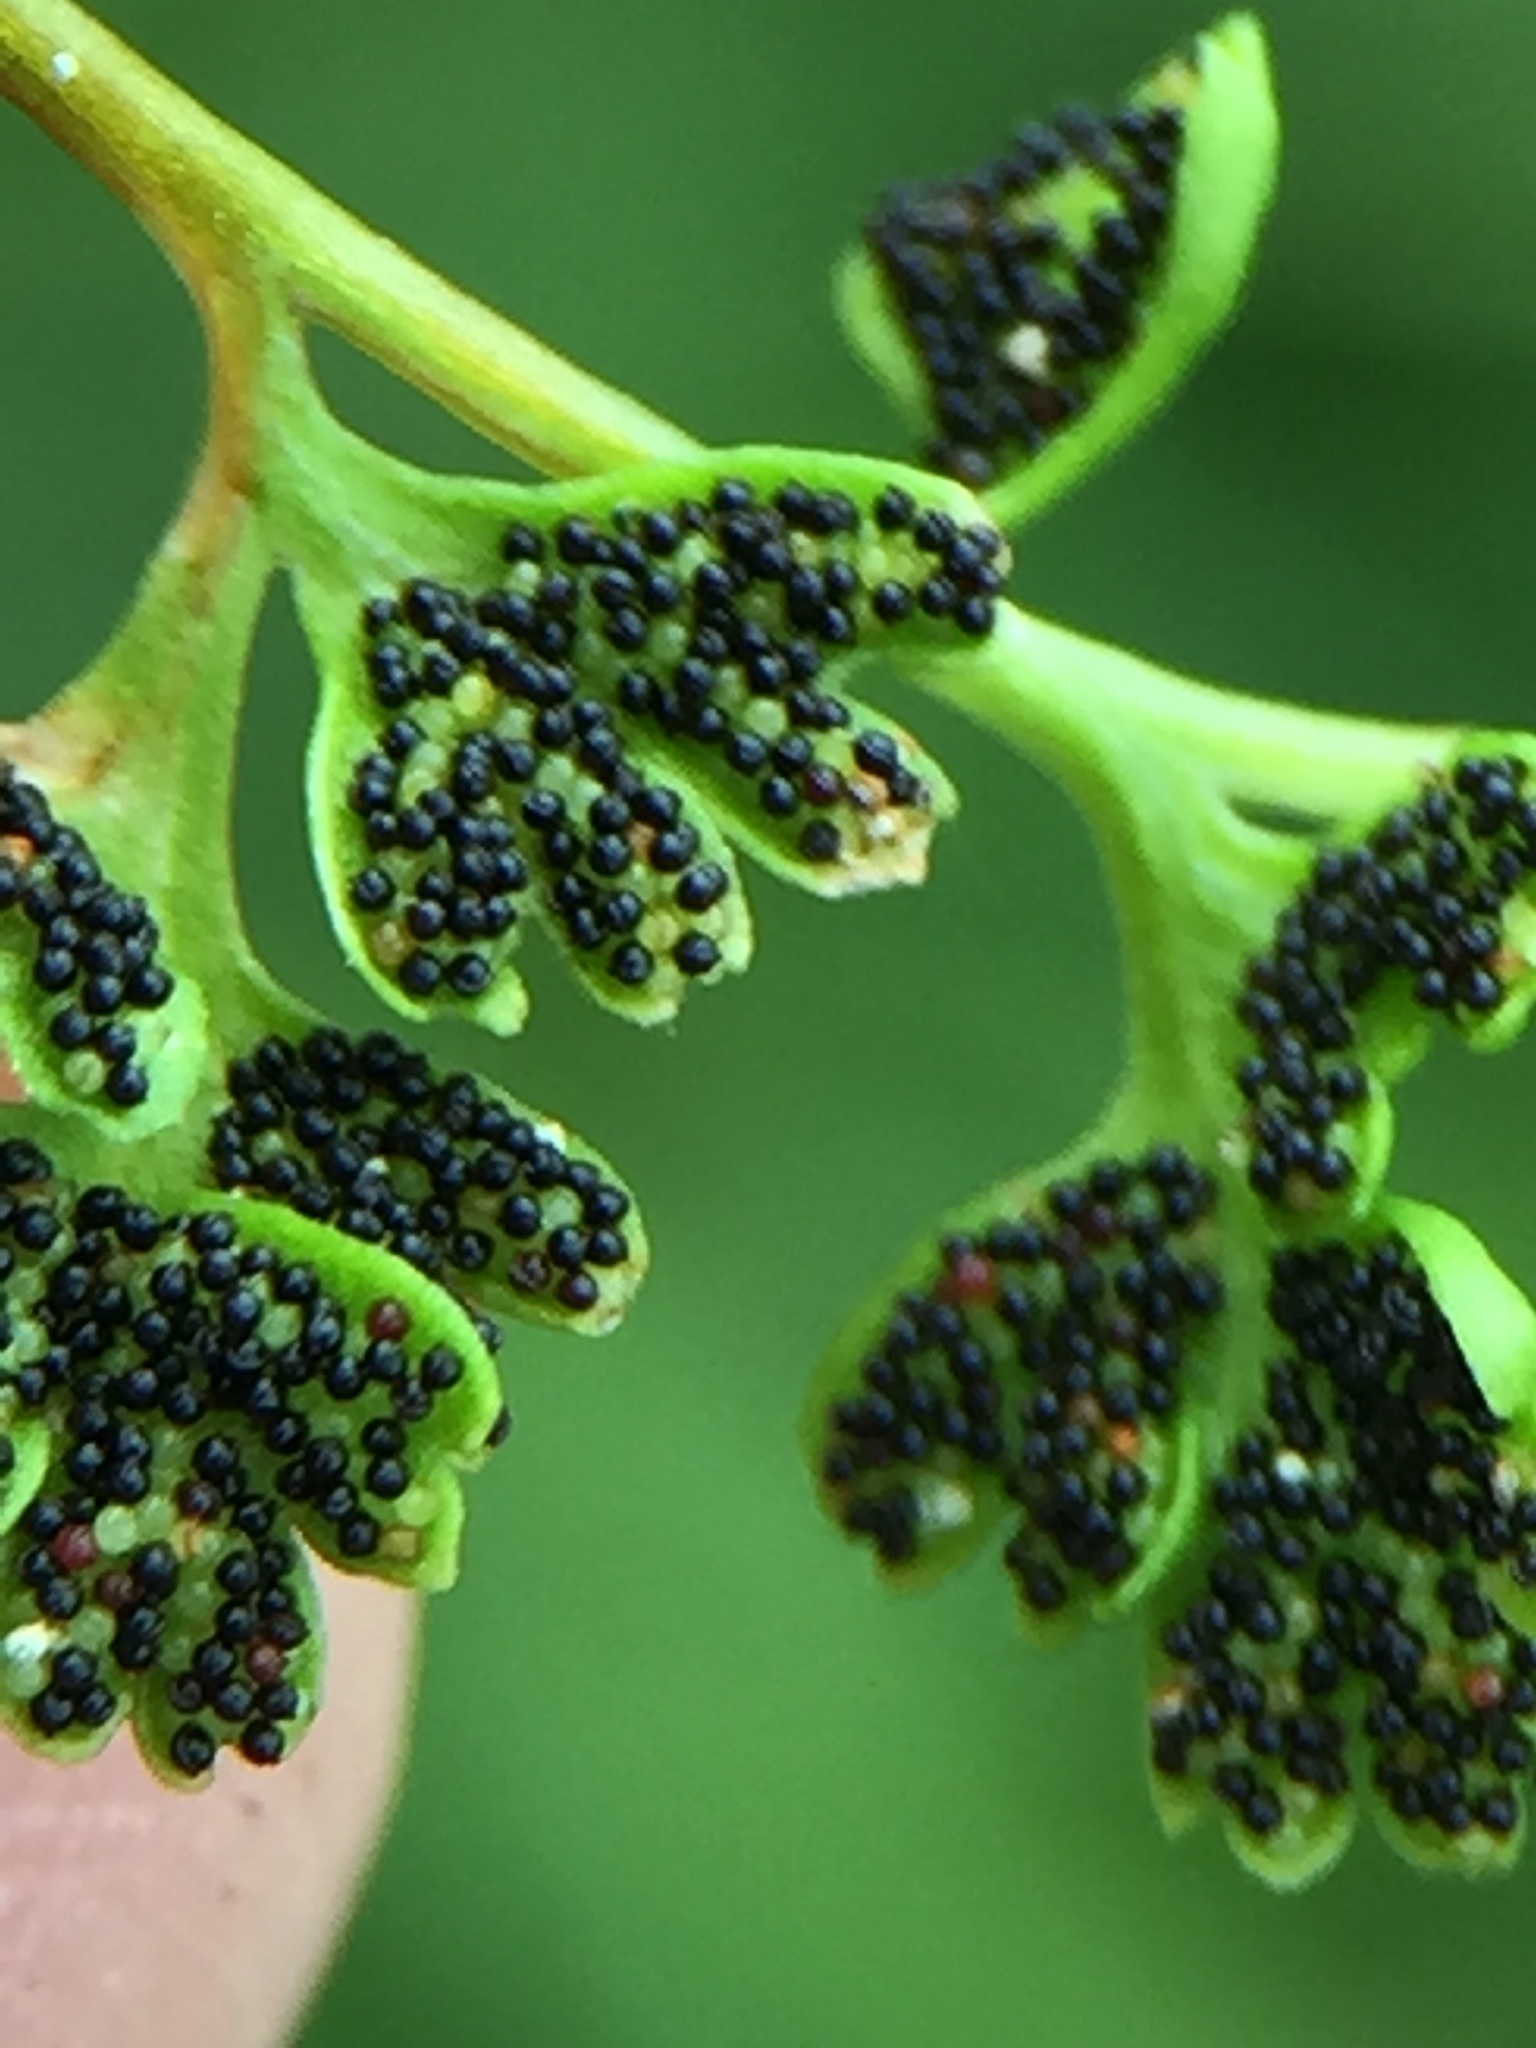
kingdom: Plantae
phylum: Tracheophyta
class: Polypodiopsida
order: Polypodiales
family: Pteridaceae
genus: Anogramma
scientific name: Anogramma leptophylla
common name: Jersey fern
